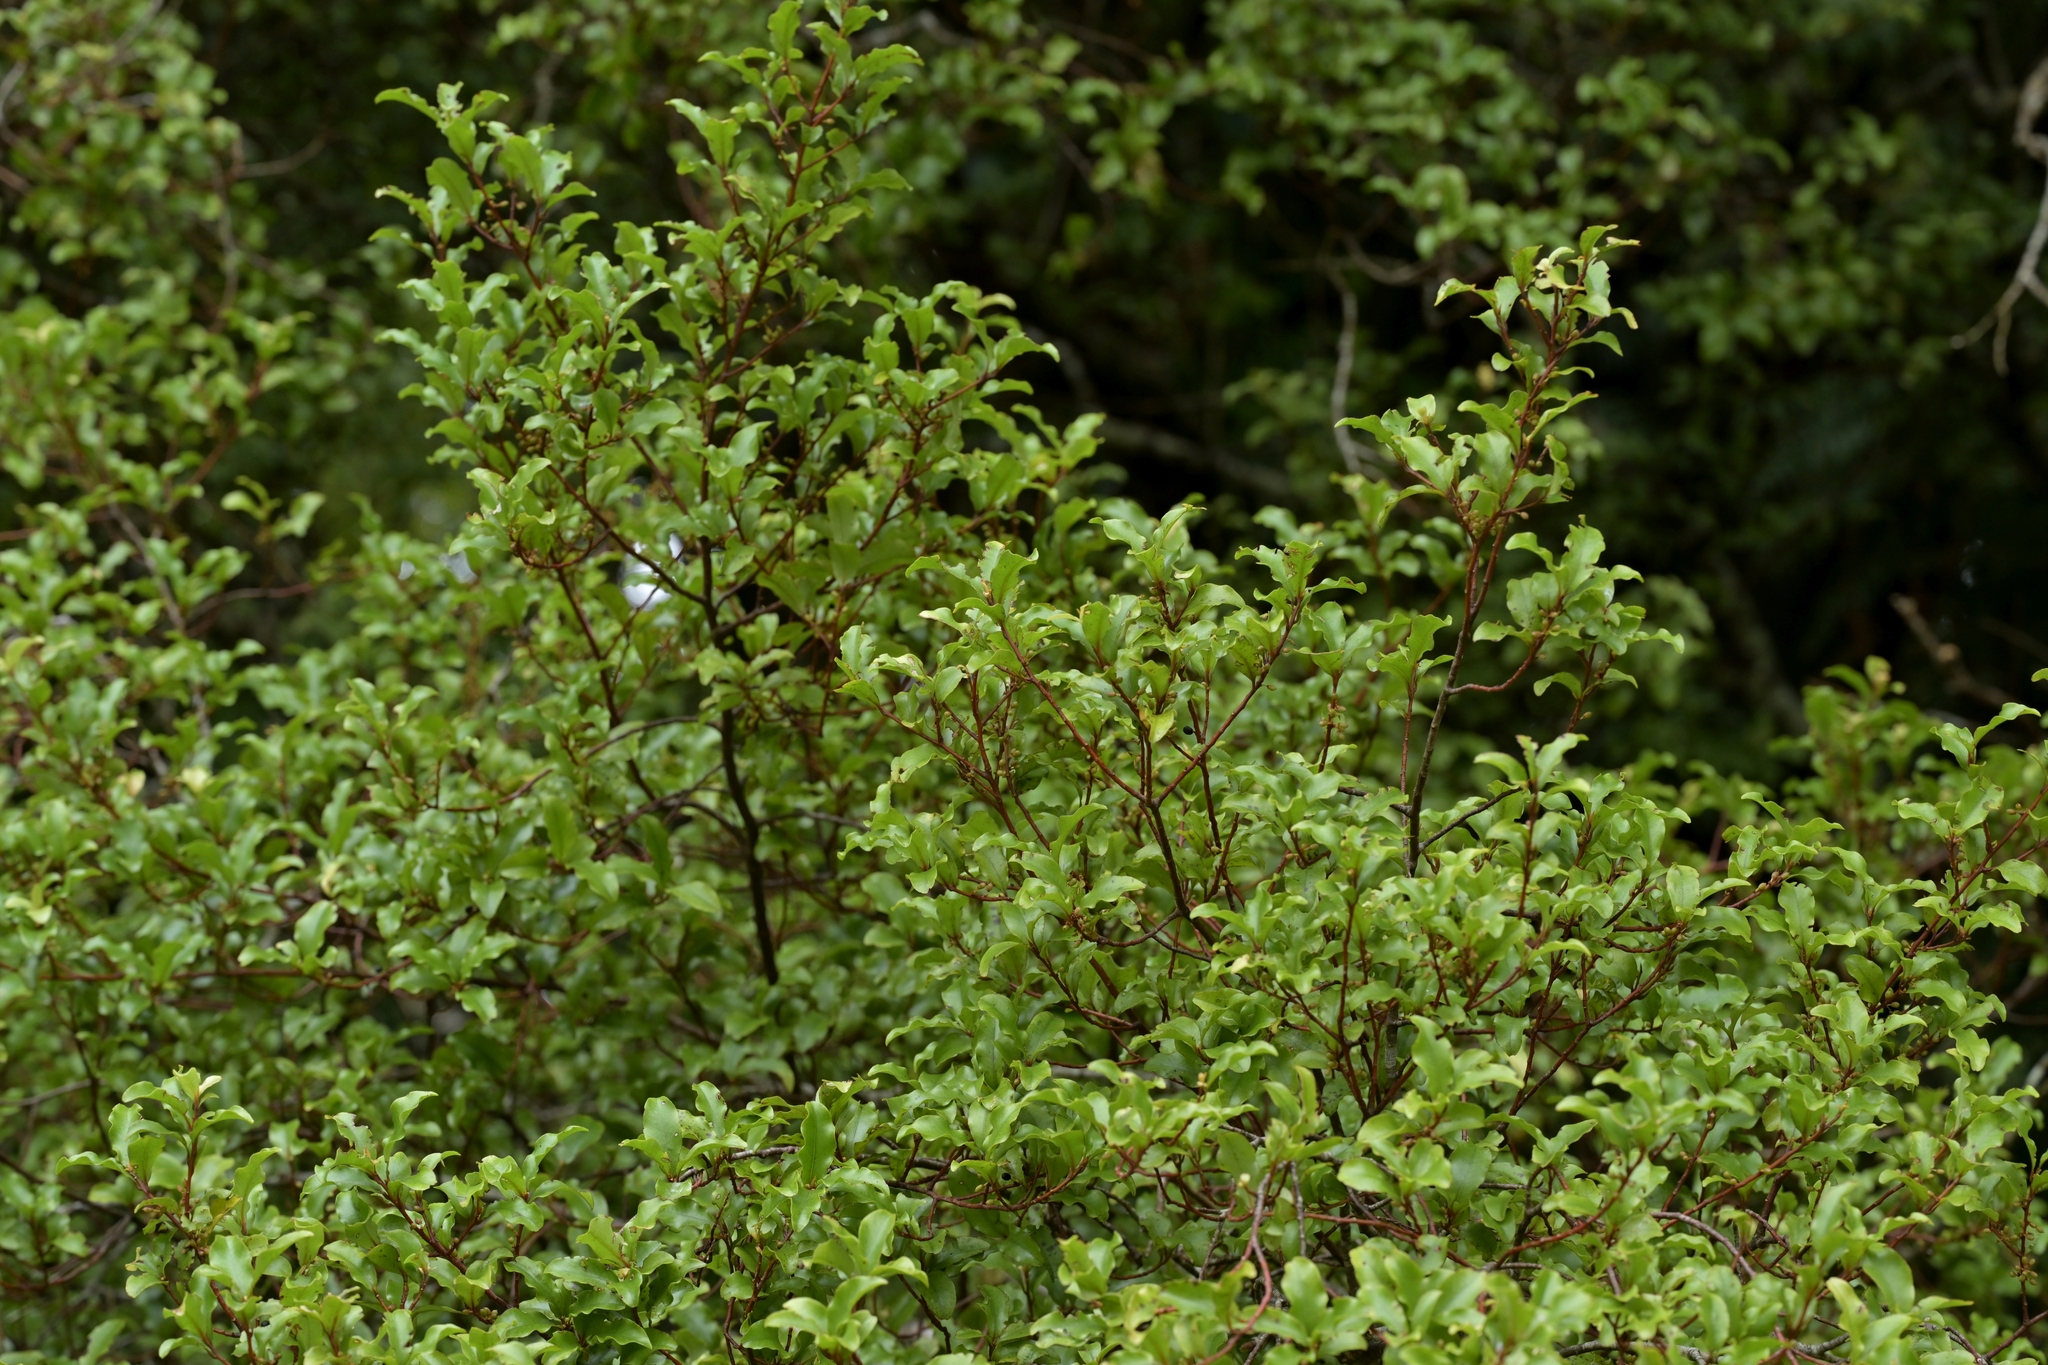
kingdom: Plantae
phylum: Tracheophyta
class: Magnoliopsida
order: Ericales
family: Primulaceae
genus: Myrsine
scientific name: Myrsine australis
